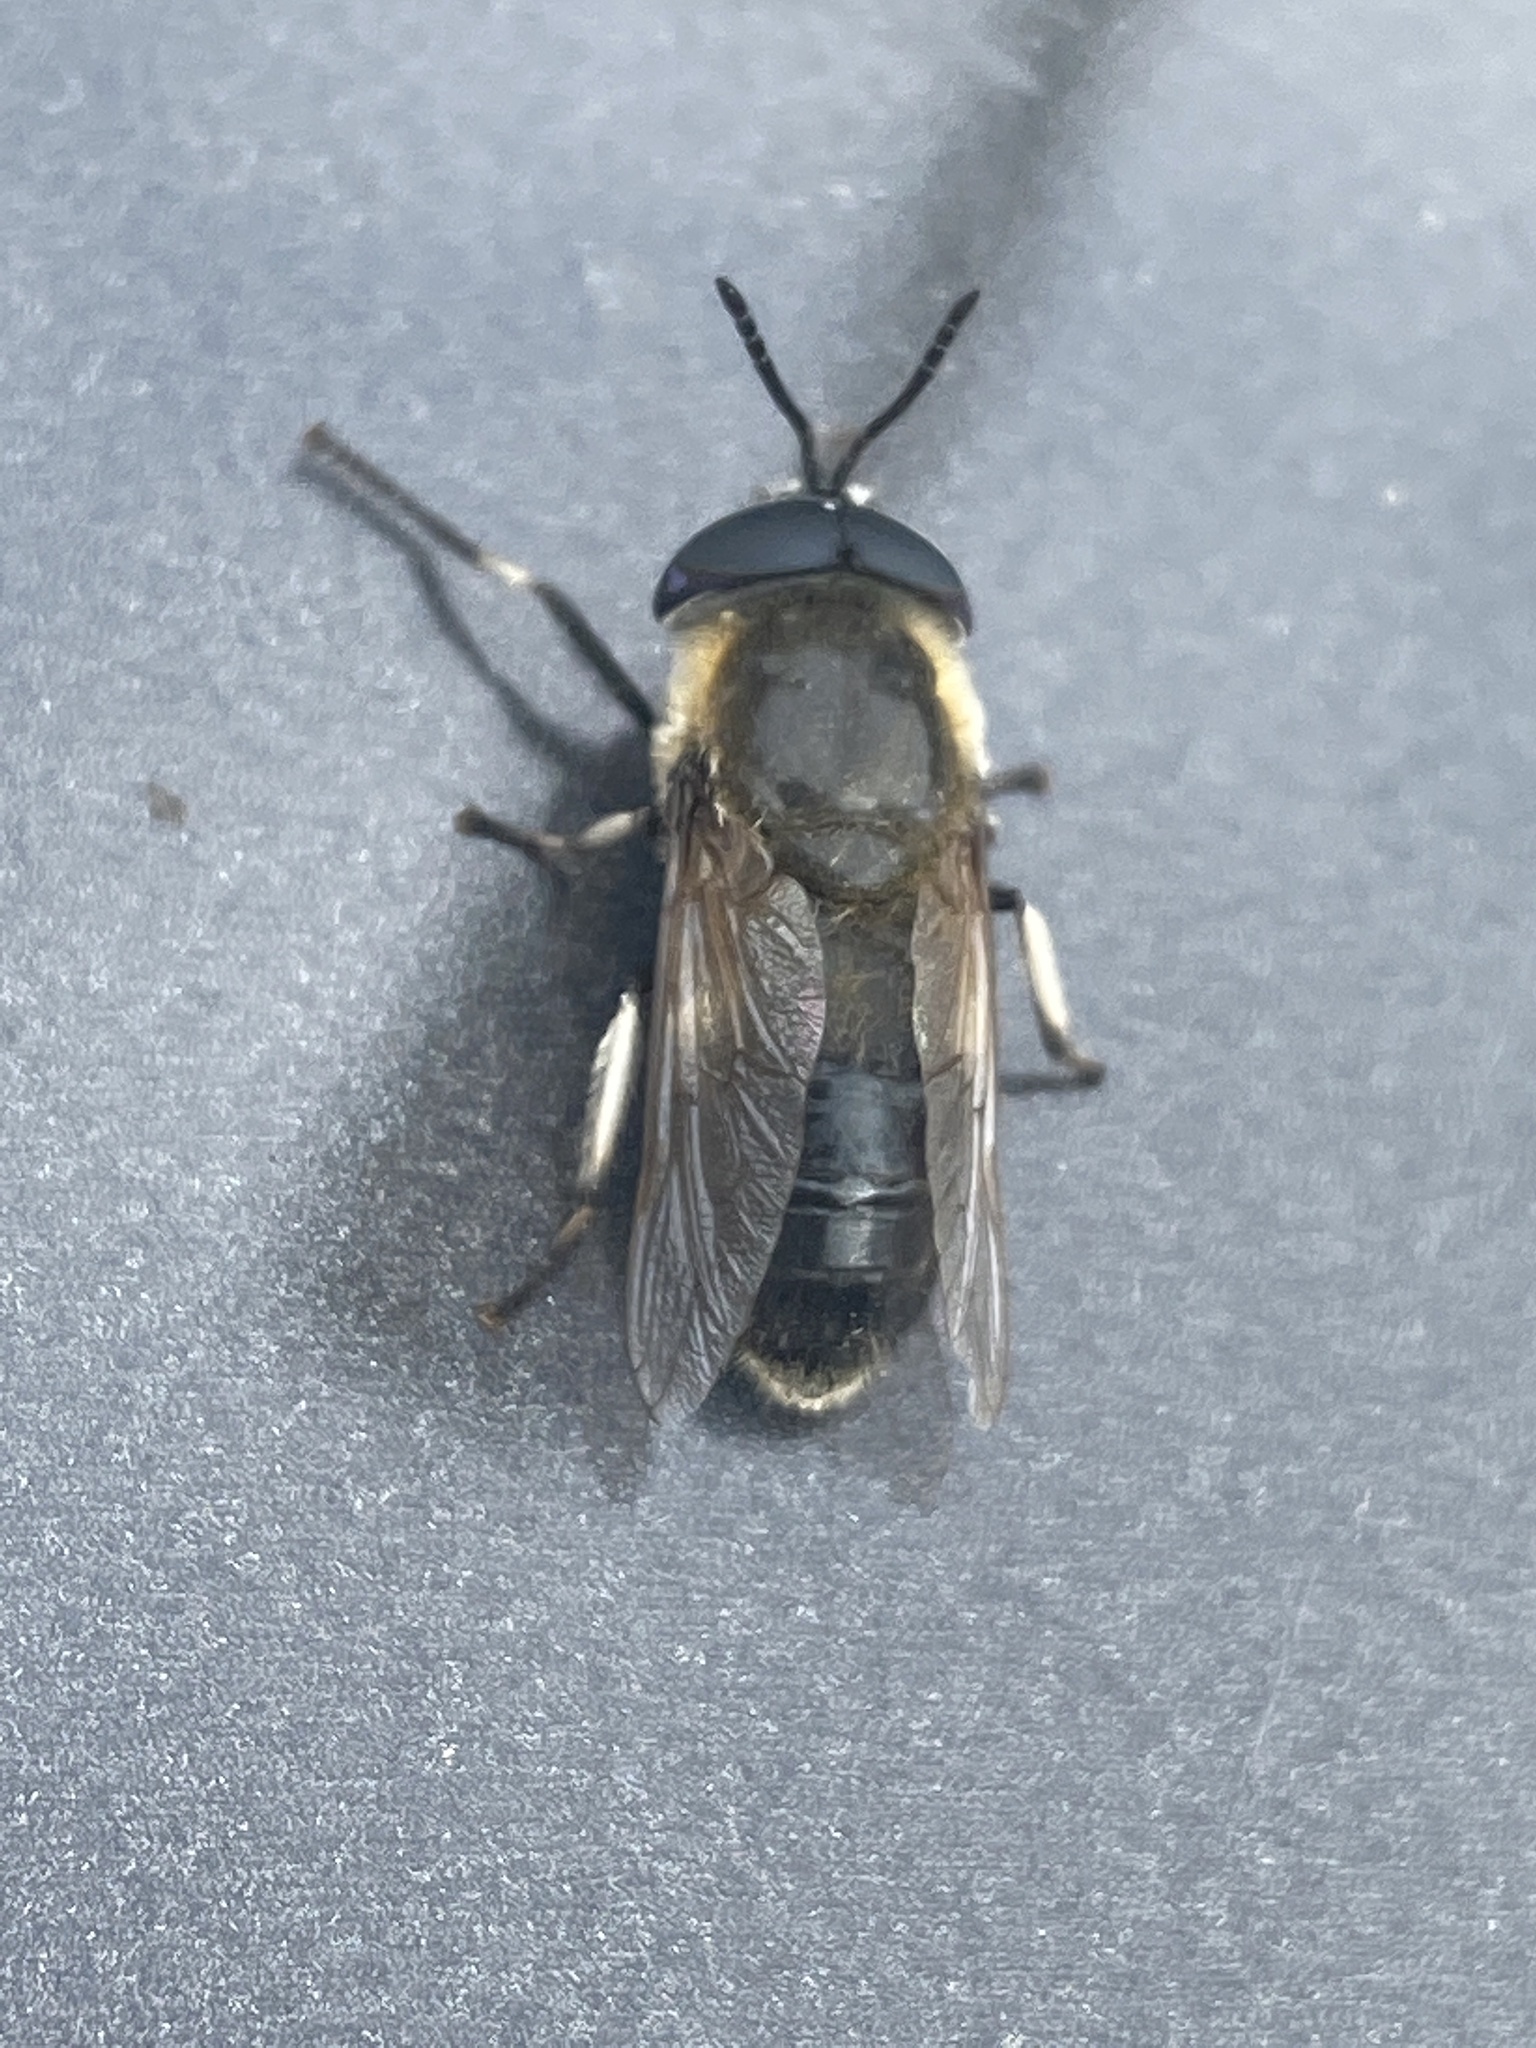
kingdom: Animalia
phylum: Arthropoda
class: Insecta
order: Diptera
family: Tabanidae
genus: Heptatoma
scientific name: Heptatoma pellucens
